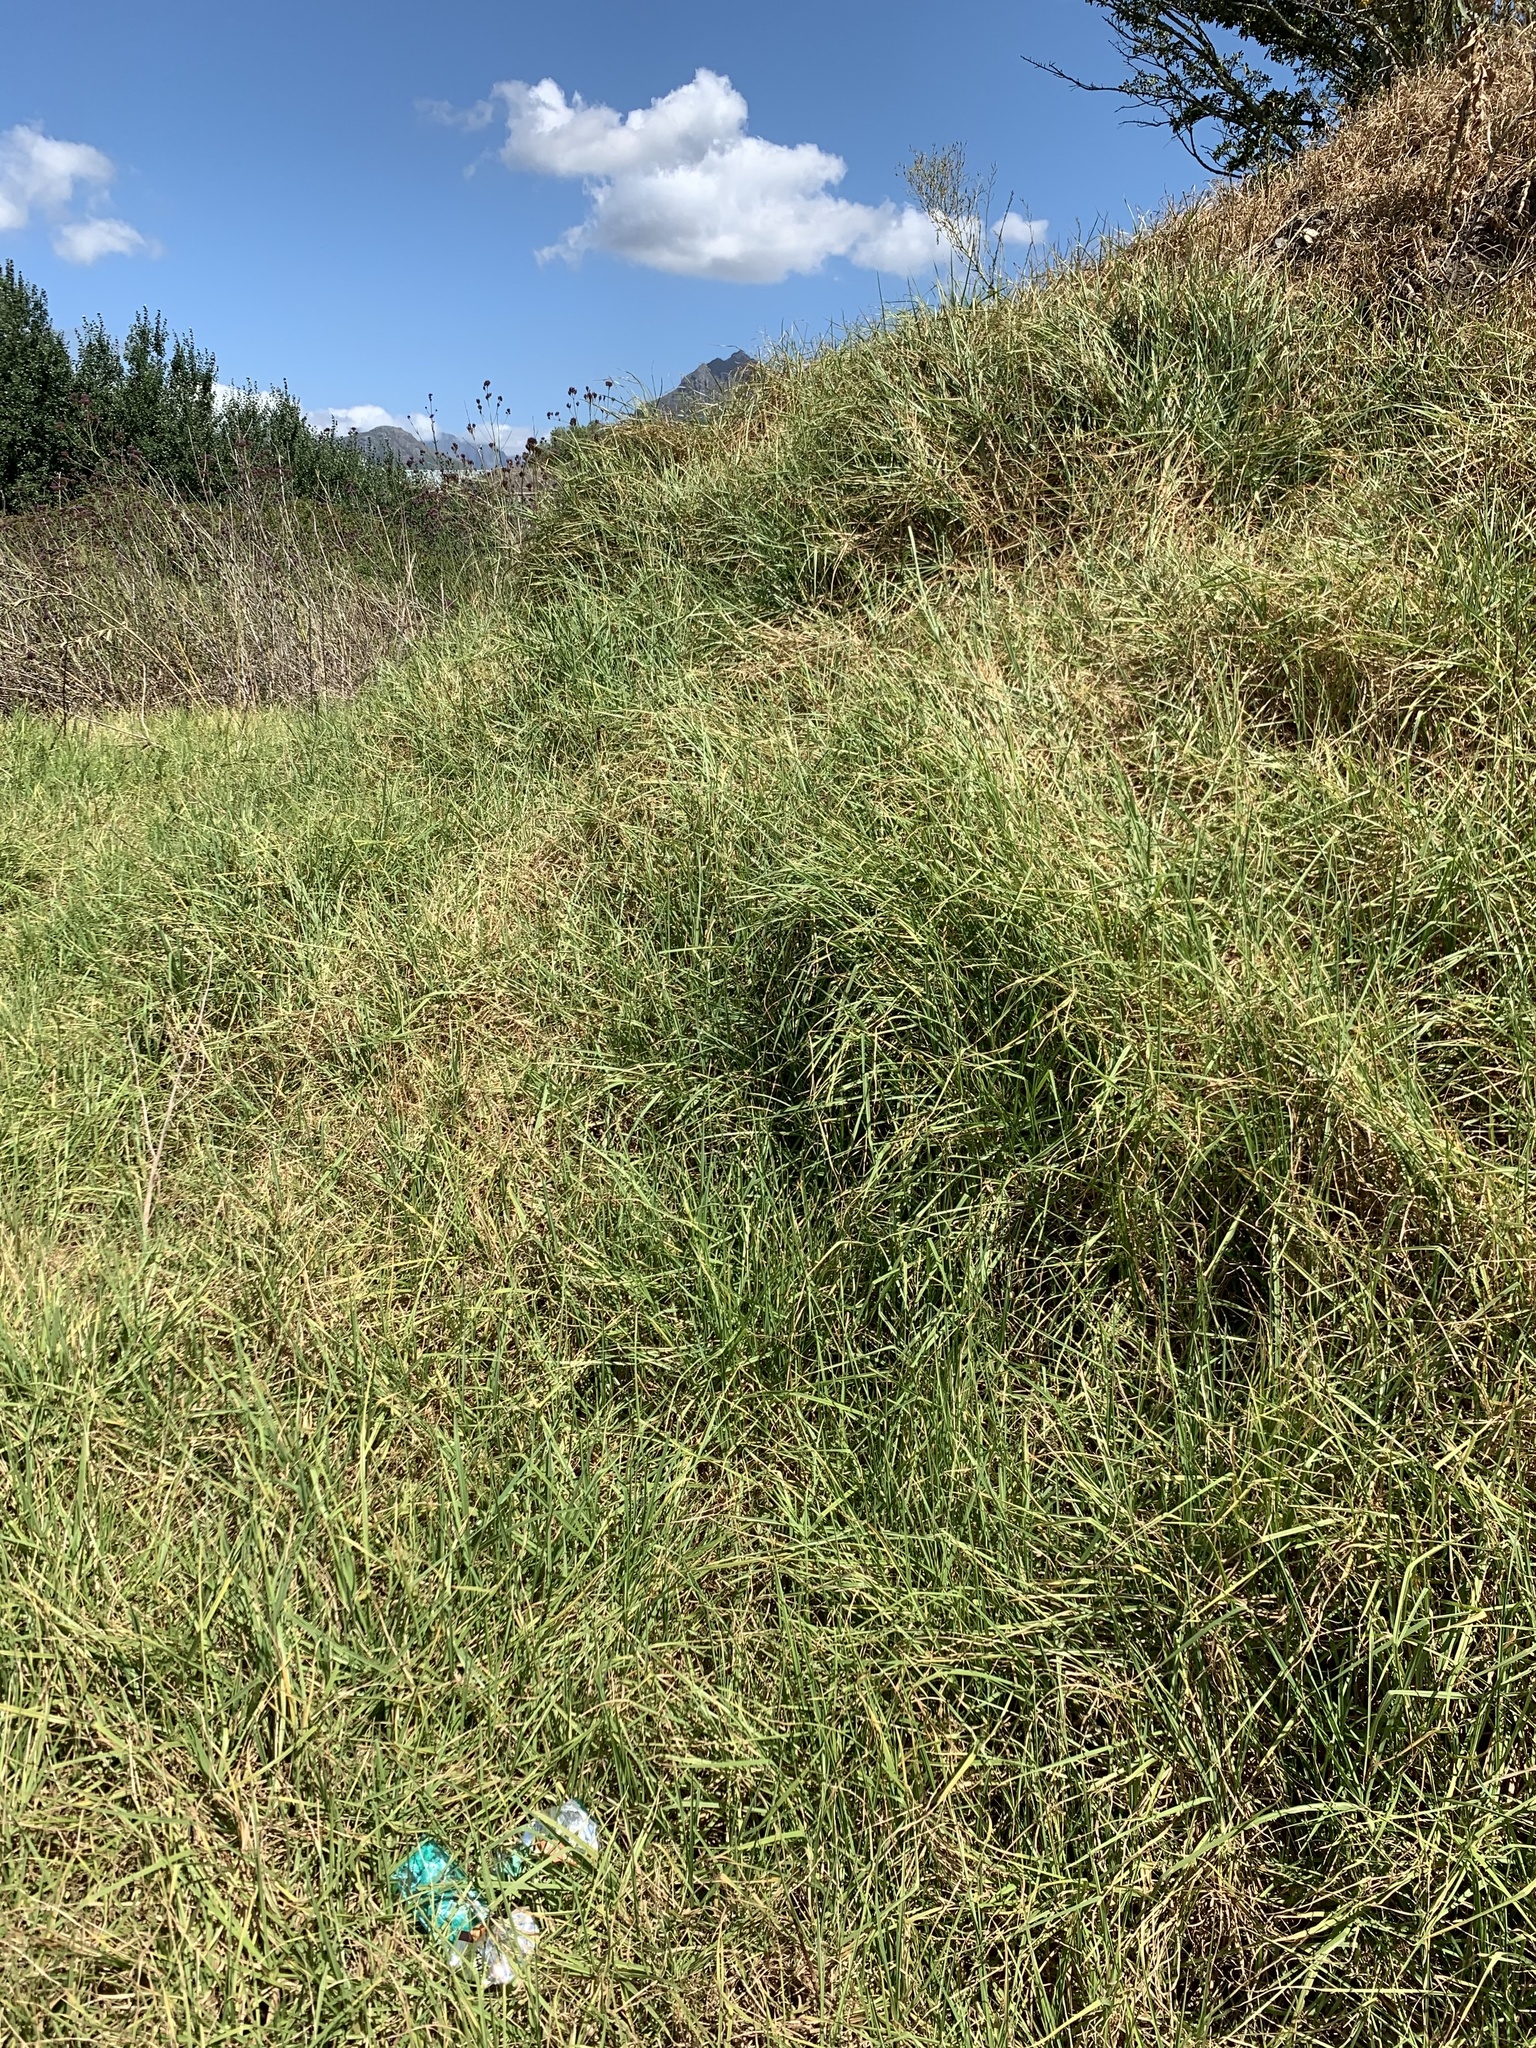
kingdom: Plantae
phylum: Tracheophyta
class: Liliopsida
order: Poales
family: Poaceae
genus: Cenchrus
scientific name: Cenchrus clandestinus
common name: Kikuyugrass
